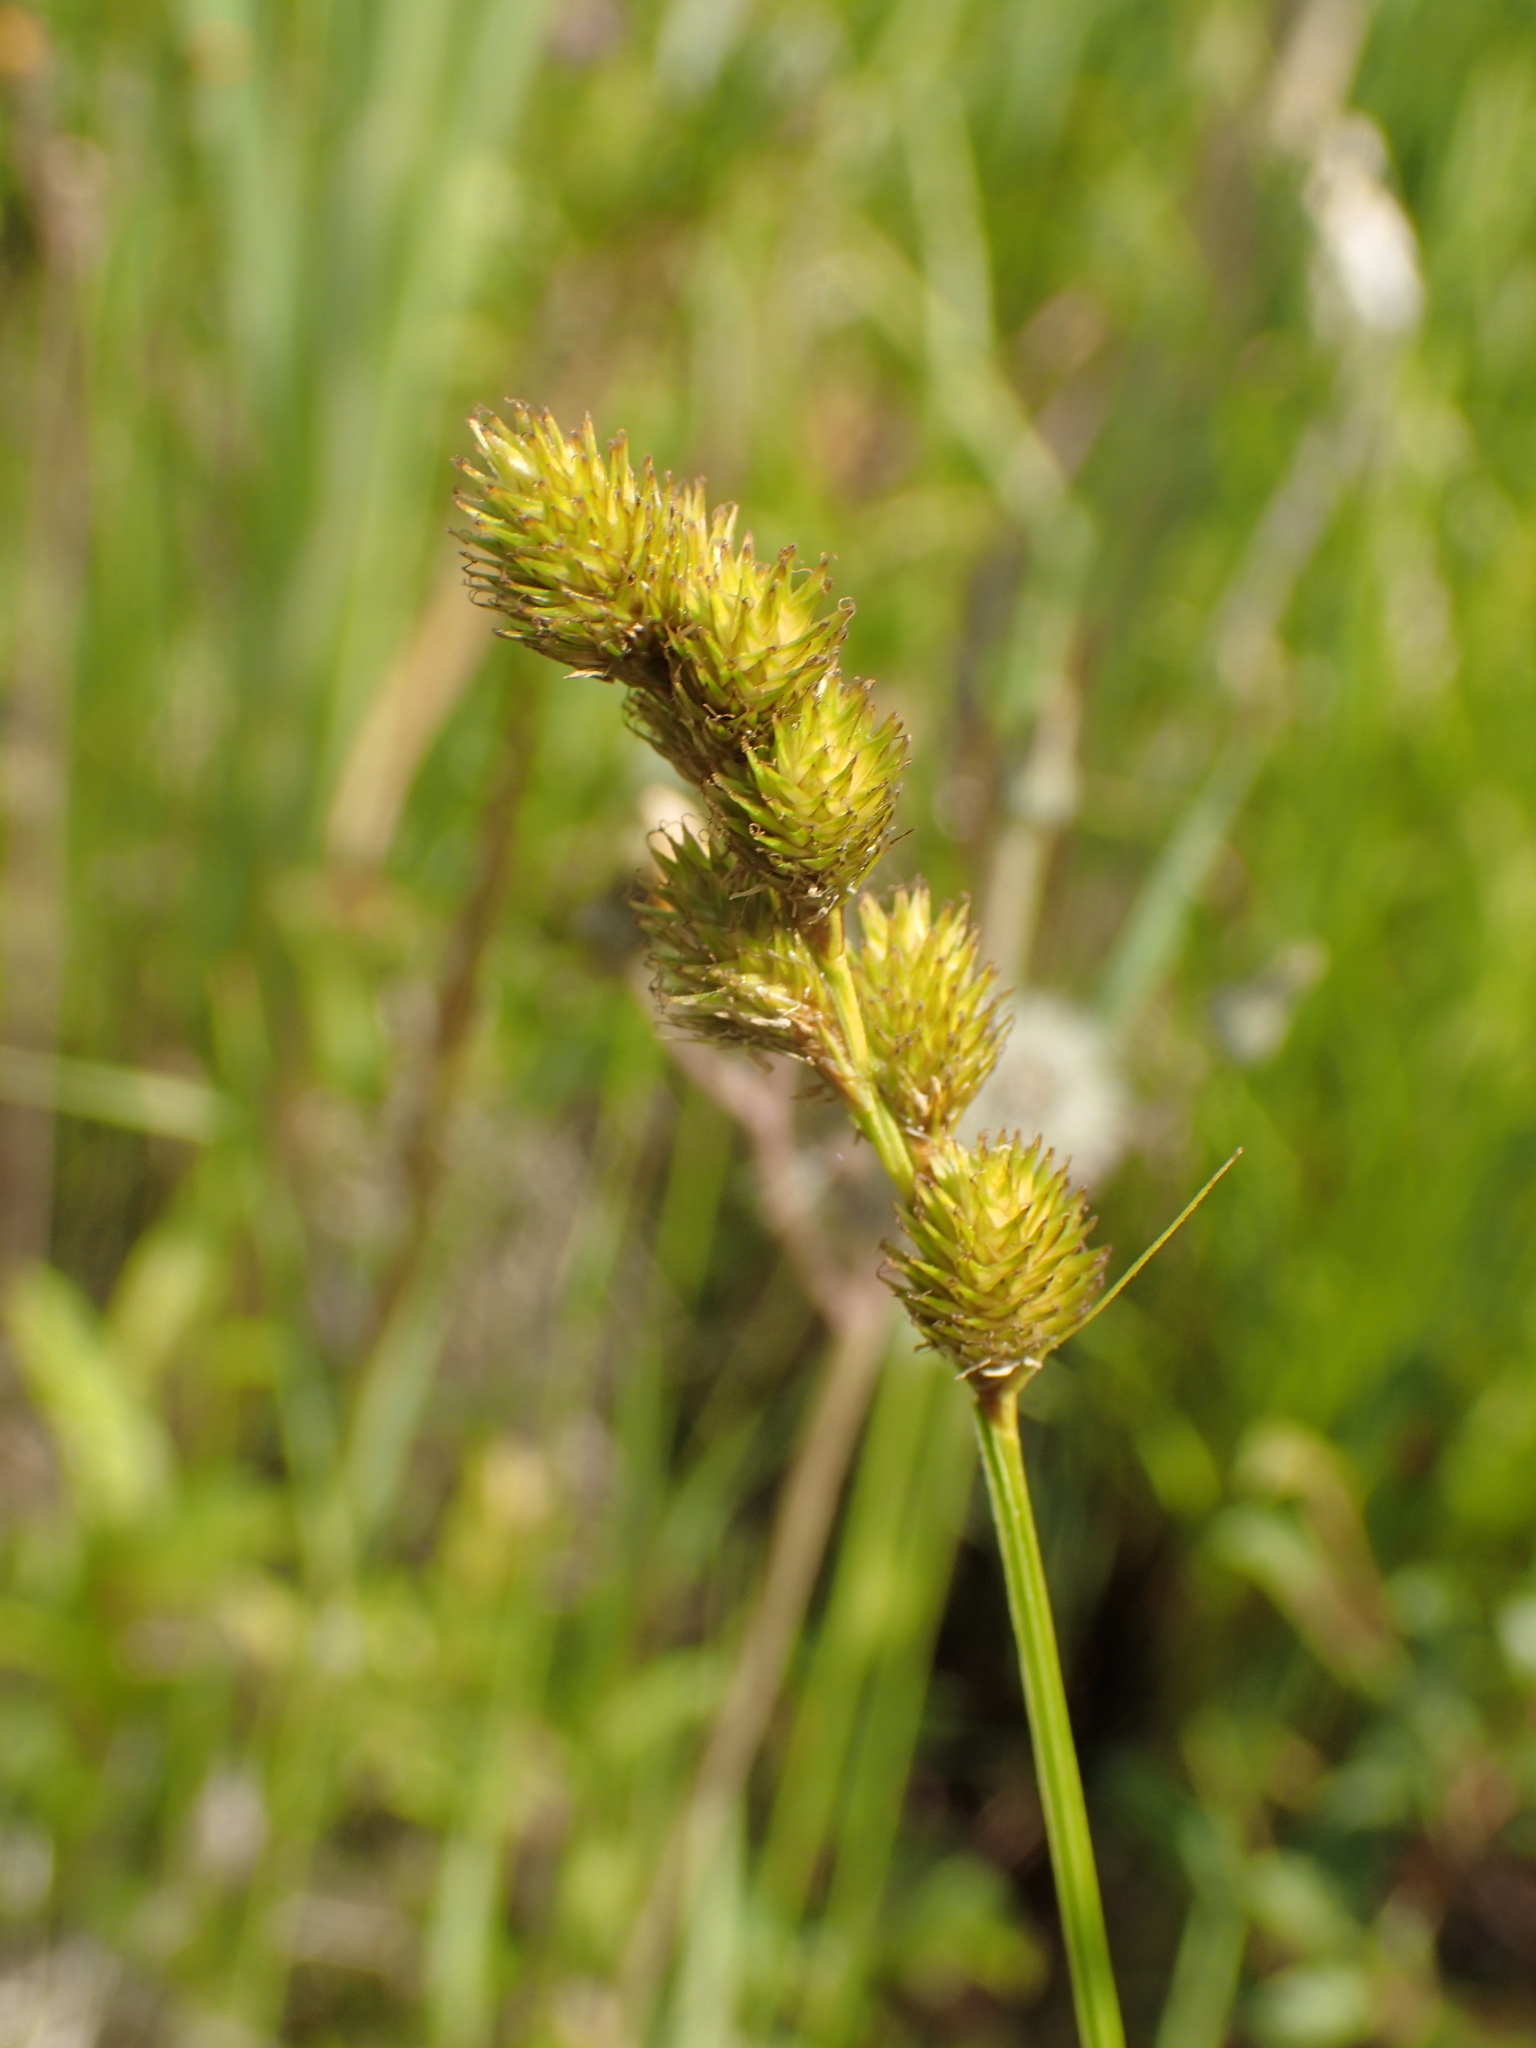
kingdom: Plantae
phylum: Tracheophyta
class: Liliopsida
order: Poales
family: Cyperaceae
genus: Carex
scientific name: Carex bebbii
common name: Bebb's sedge
